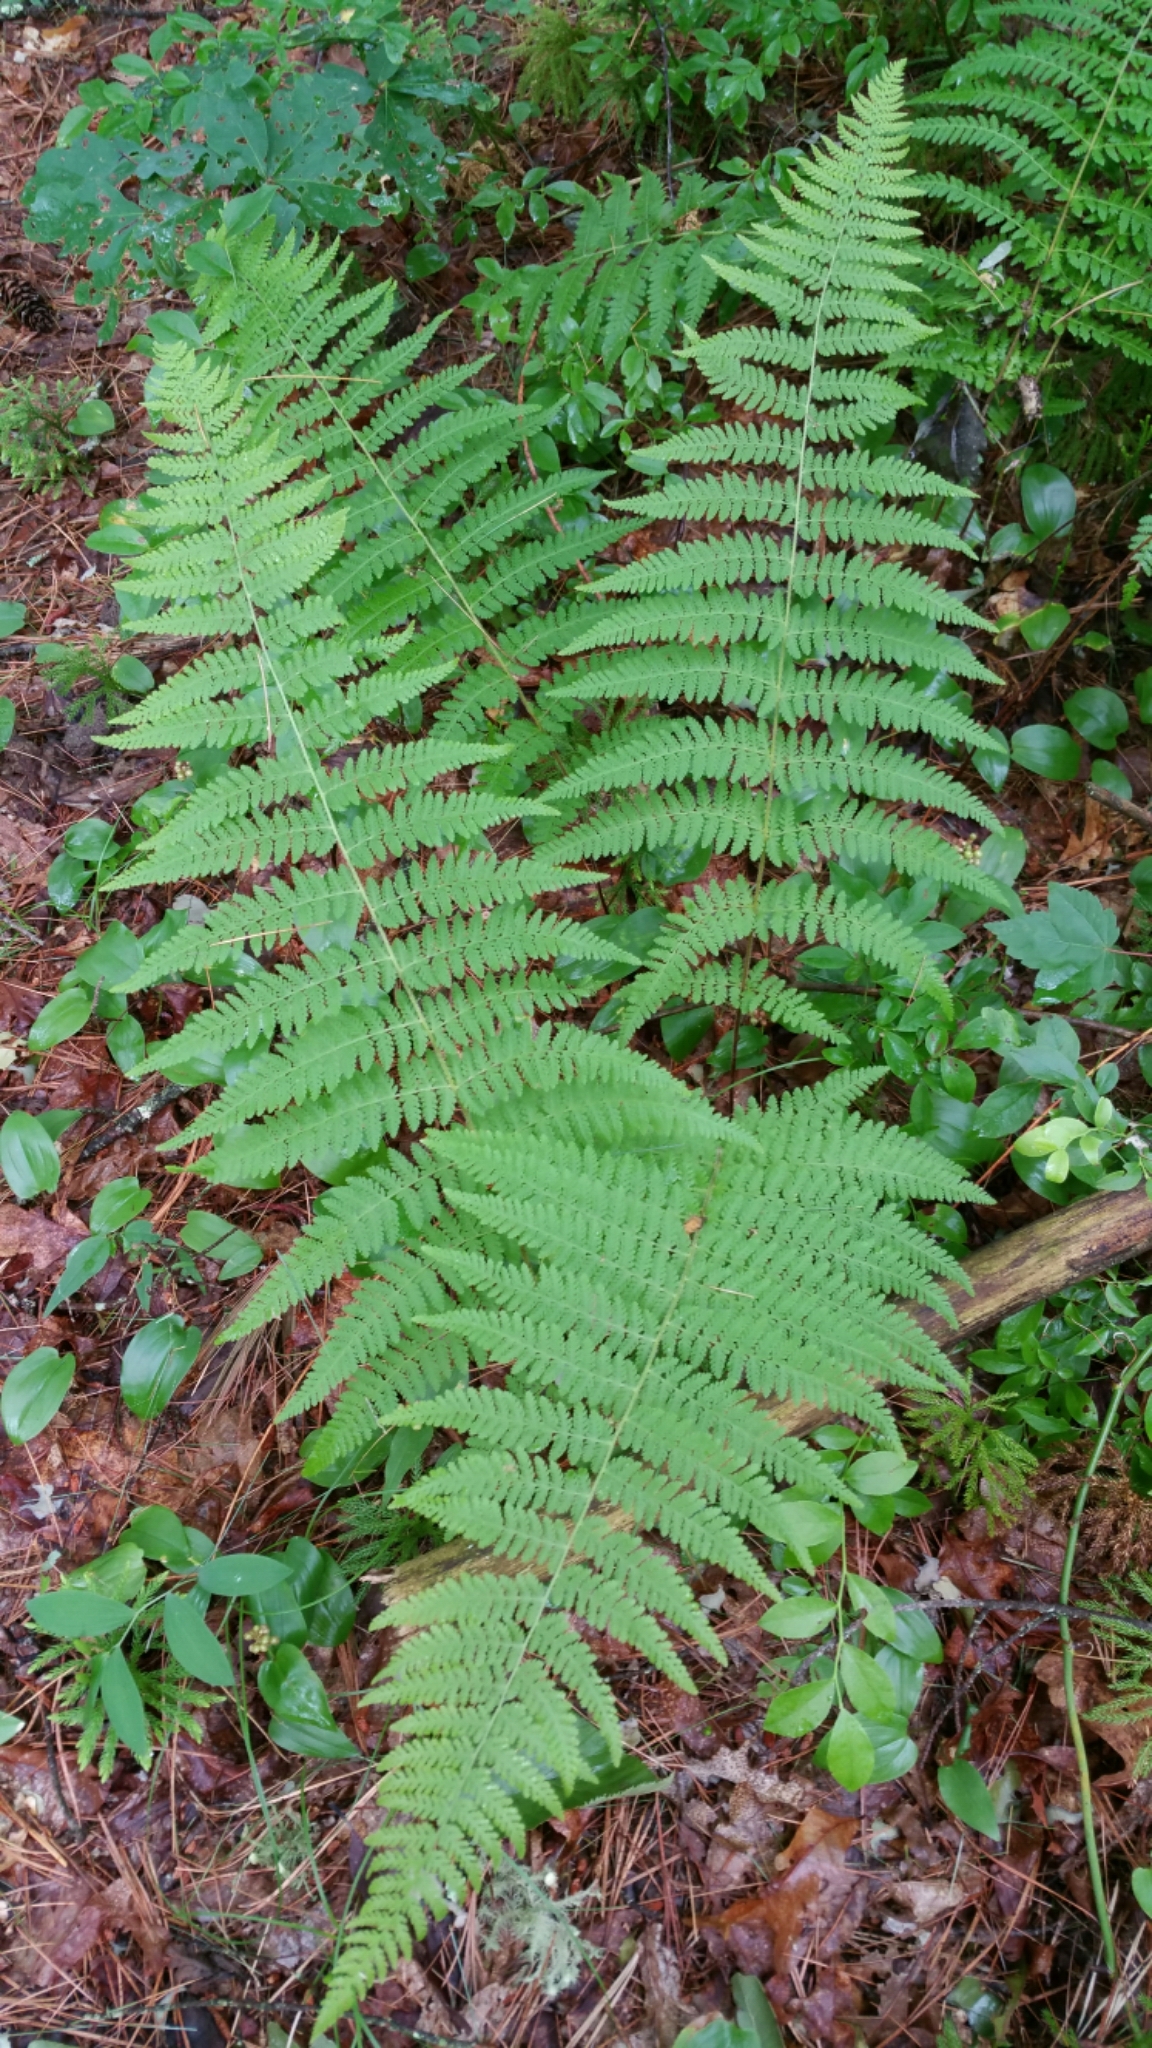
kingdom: Plantae
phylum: Tracheophyta
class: Polypodiopsida
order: Polypodiales
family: Dennstaedtiaceae
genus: Sitobolium
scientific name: Sitobolium punctilobum
